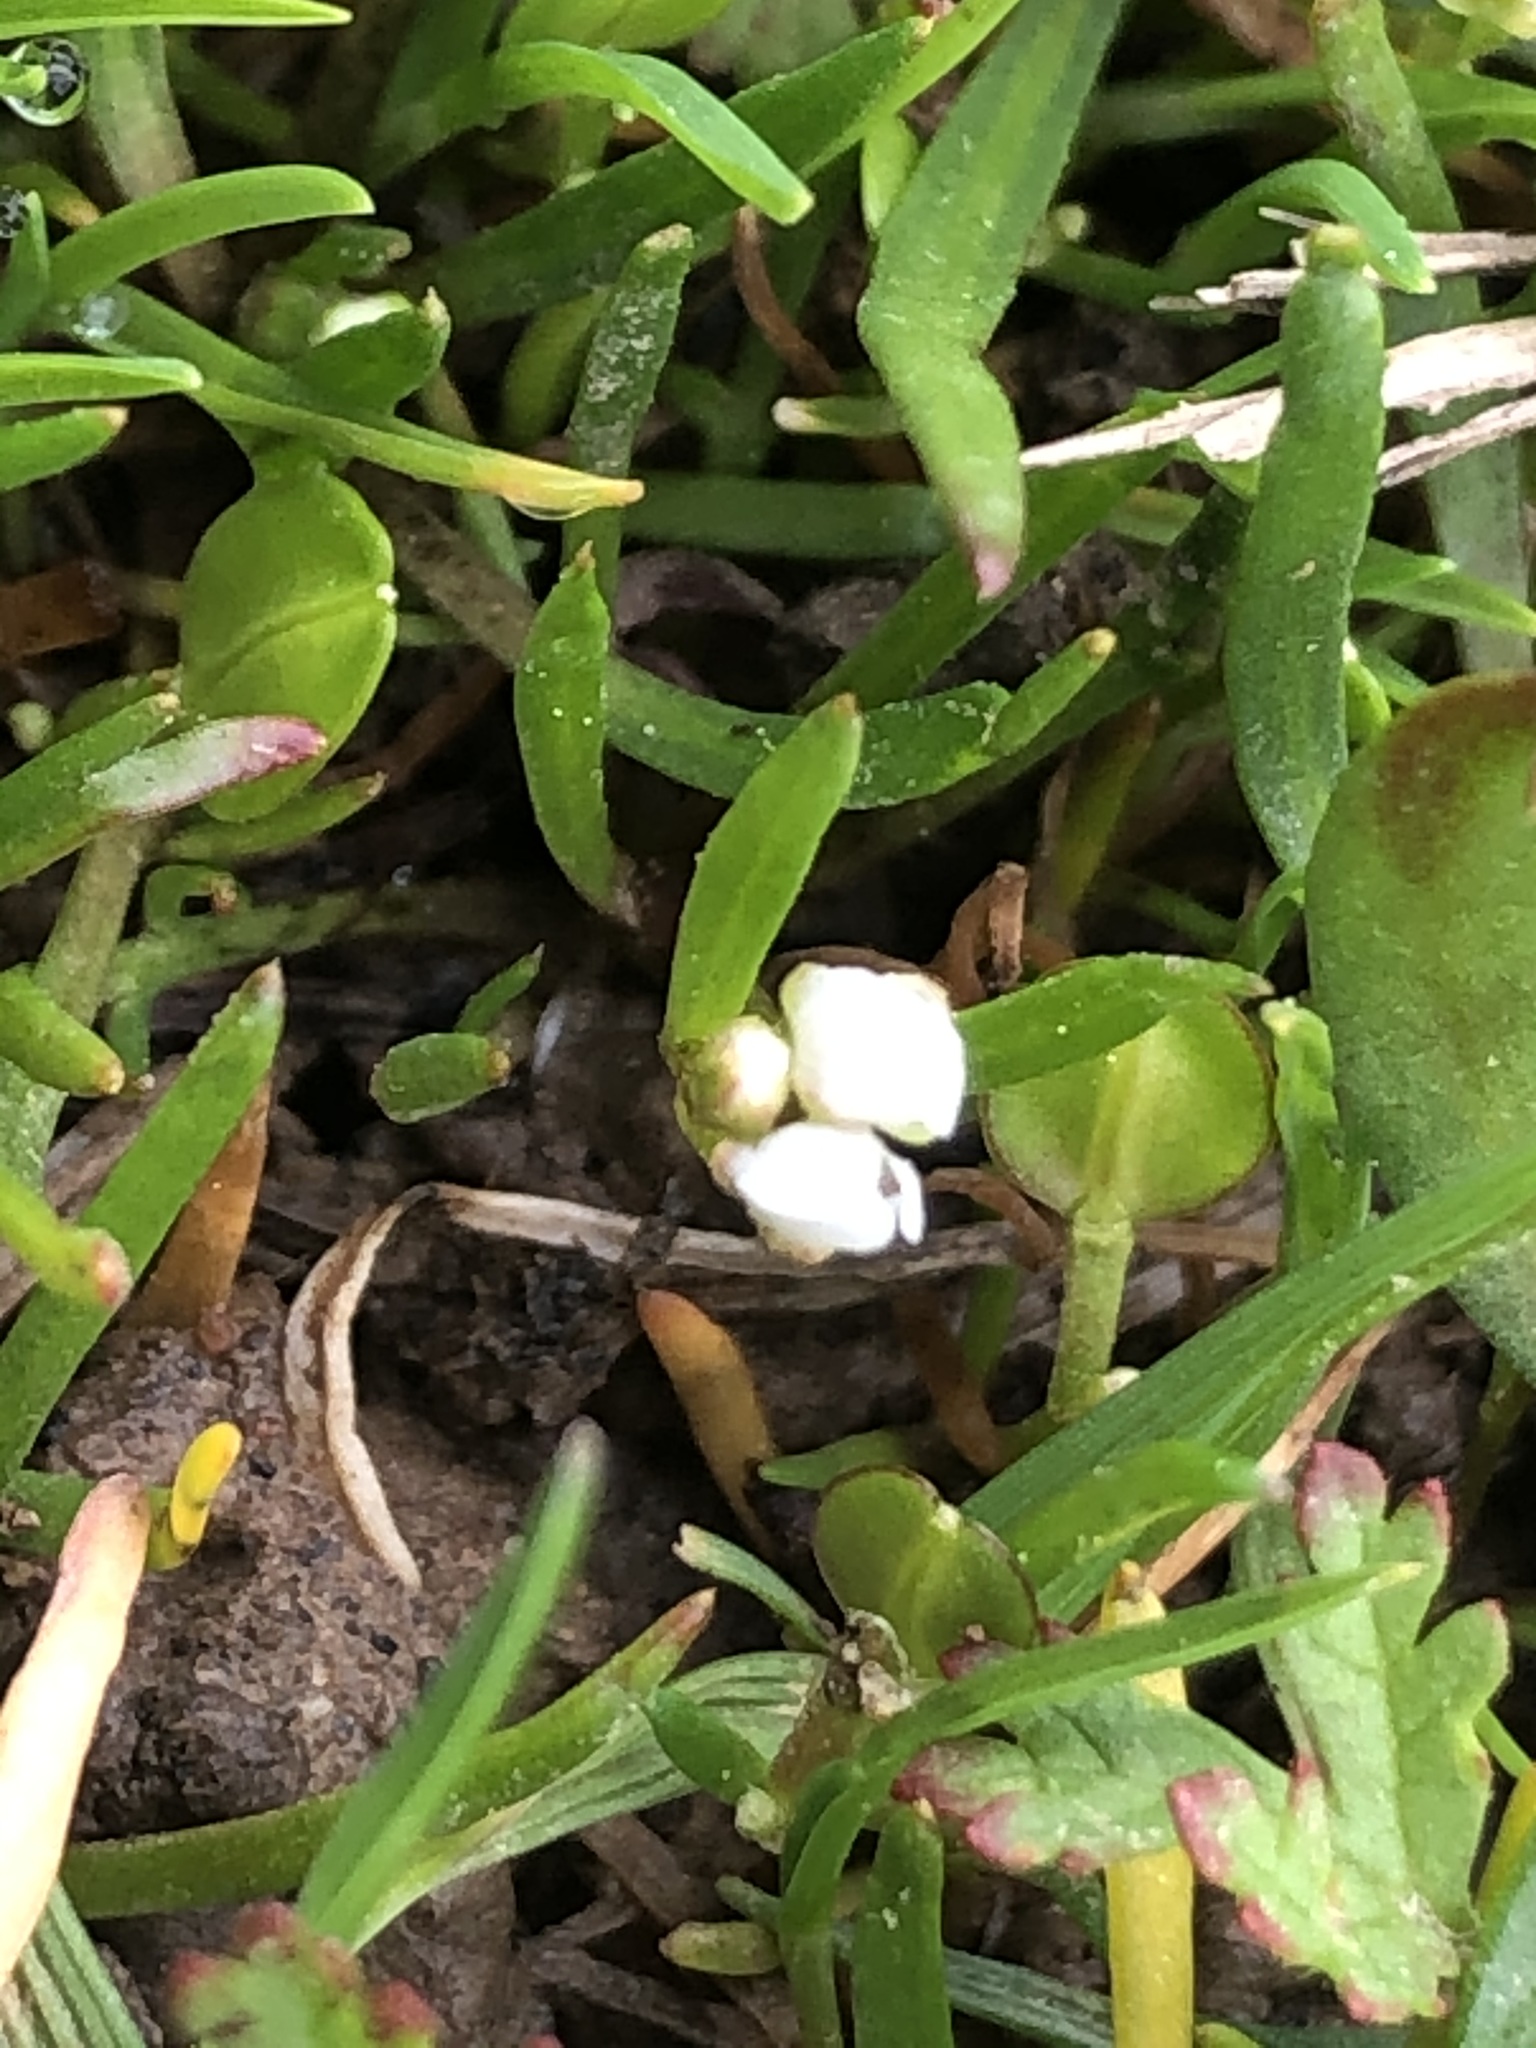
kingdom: Plantae
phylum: Tracheophyta
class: Magnoliopsida
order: Brassicales
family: Brassicaceae
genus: Lepidium
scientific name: Lepidium nitidum
